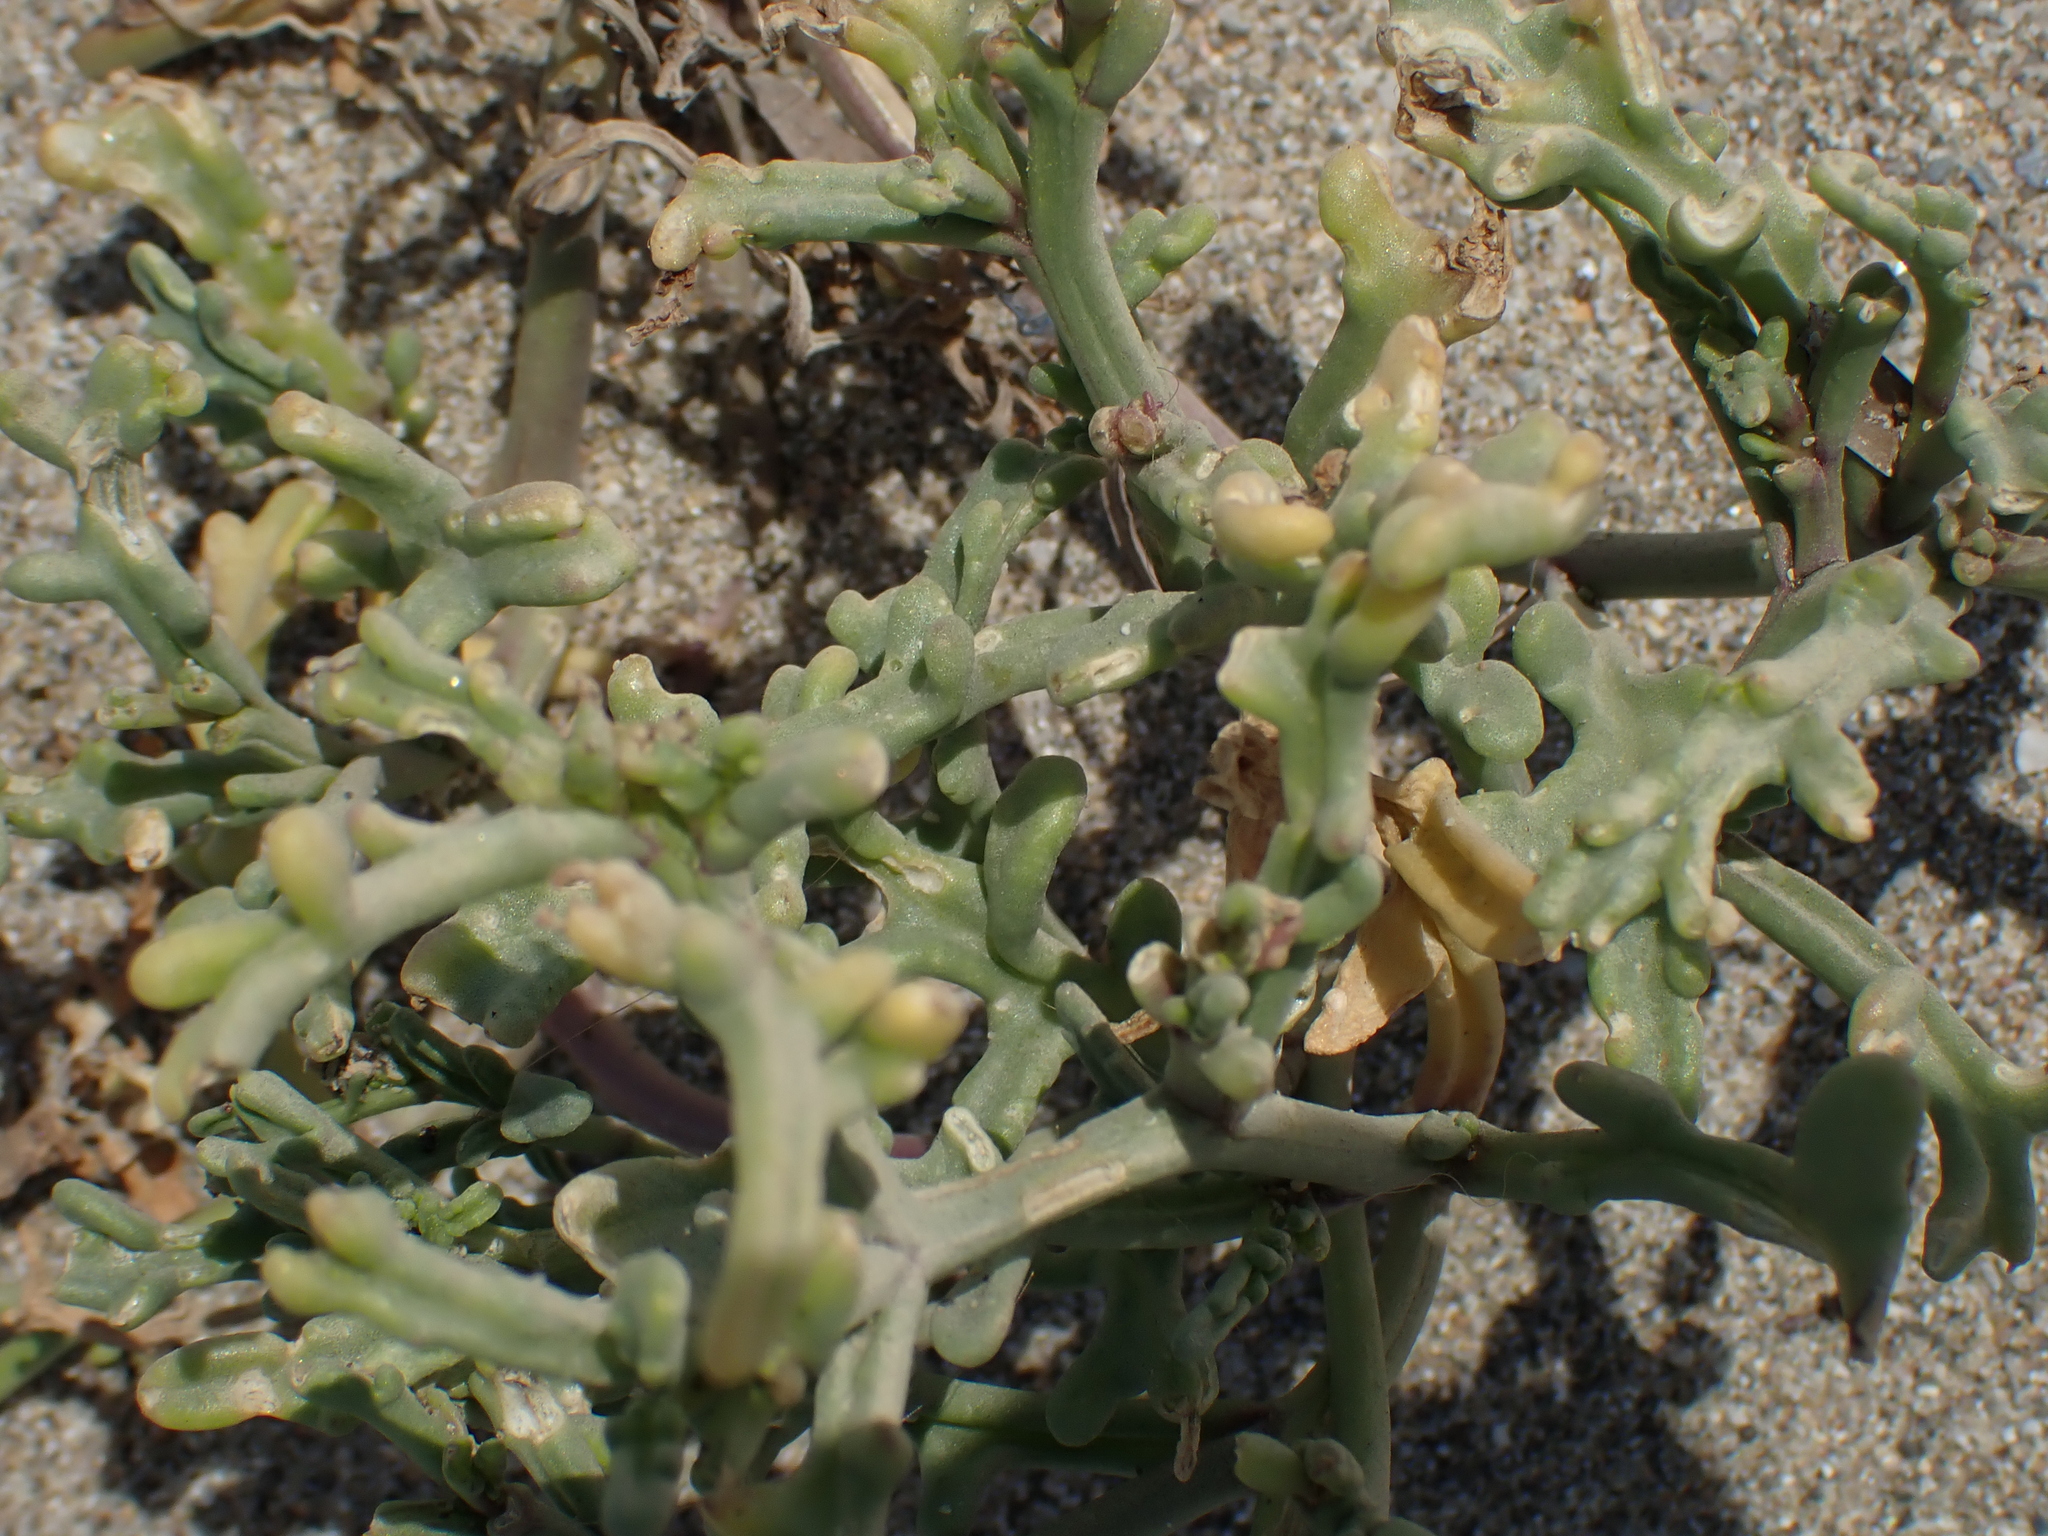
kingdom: Plantae
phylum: Tracheophyta
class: Magnoliopsida
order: Brassicales
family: Brassicaceae
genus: Cakile
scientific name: Cakile maritima
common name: Sea rocket
